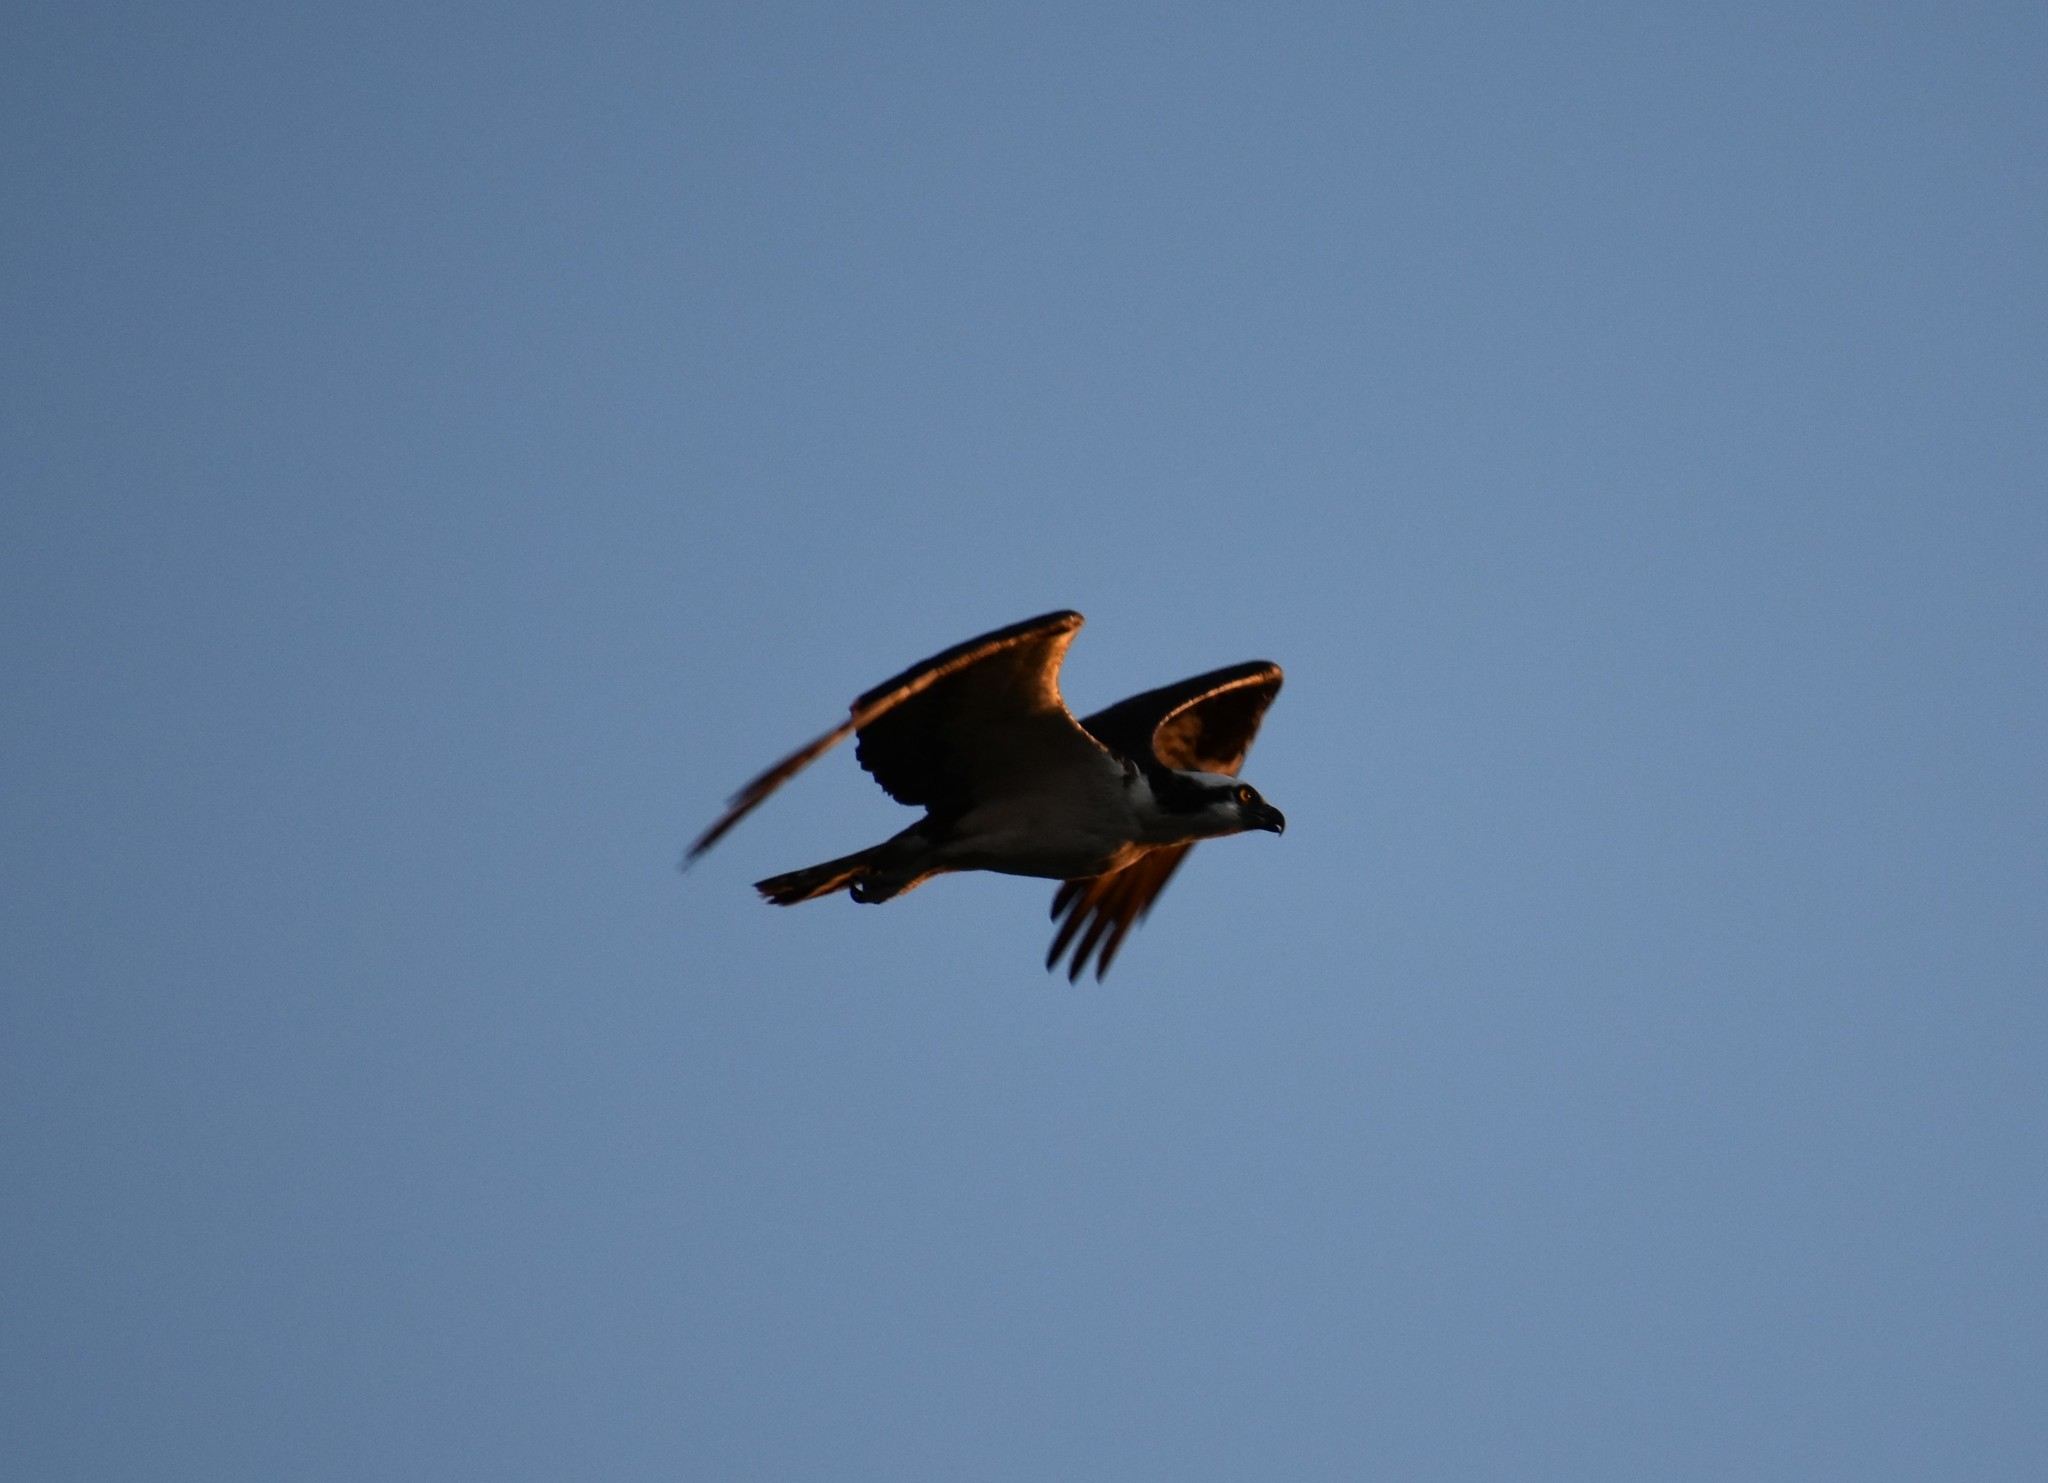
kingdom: Animalia
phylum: Chordata
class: Aves
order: Accipitriformes
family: Pandionidae
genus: Pandion
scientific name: Pandion haliaetus
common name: Osprey
